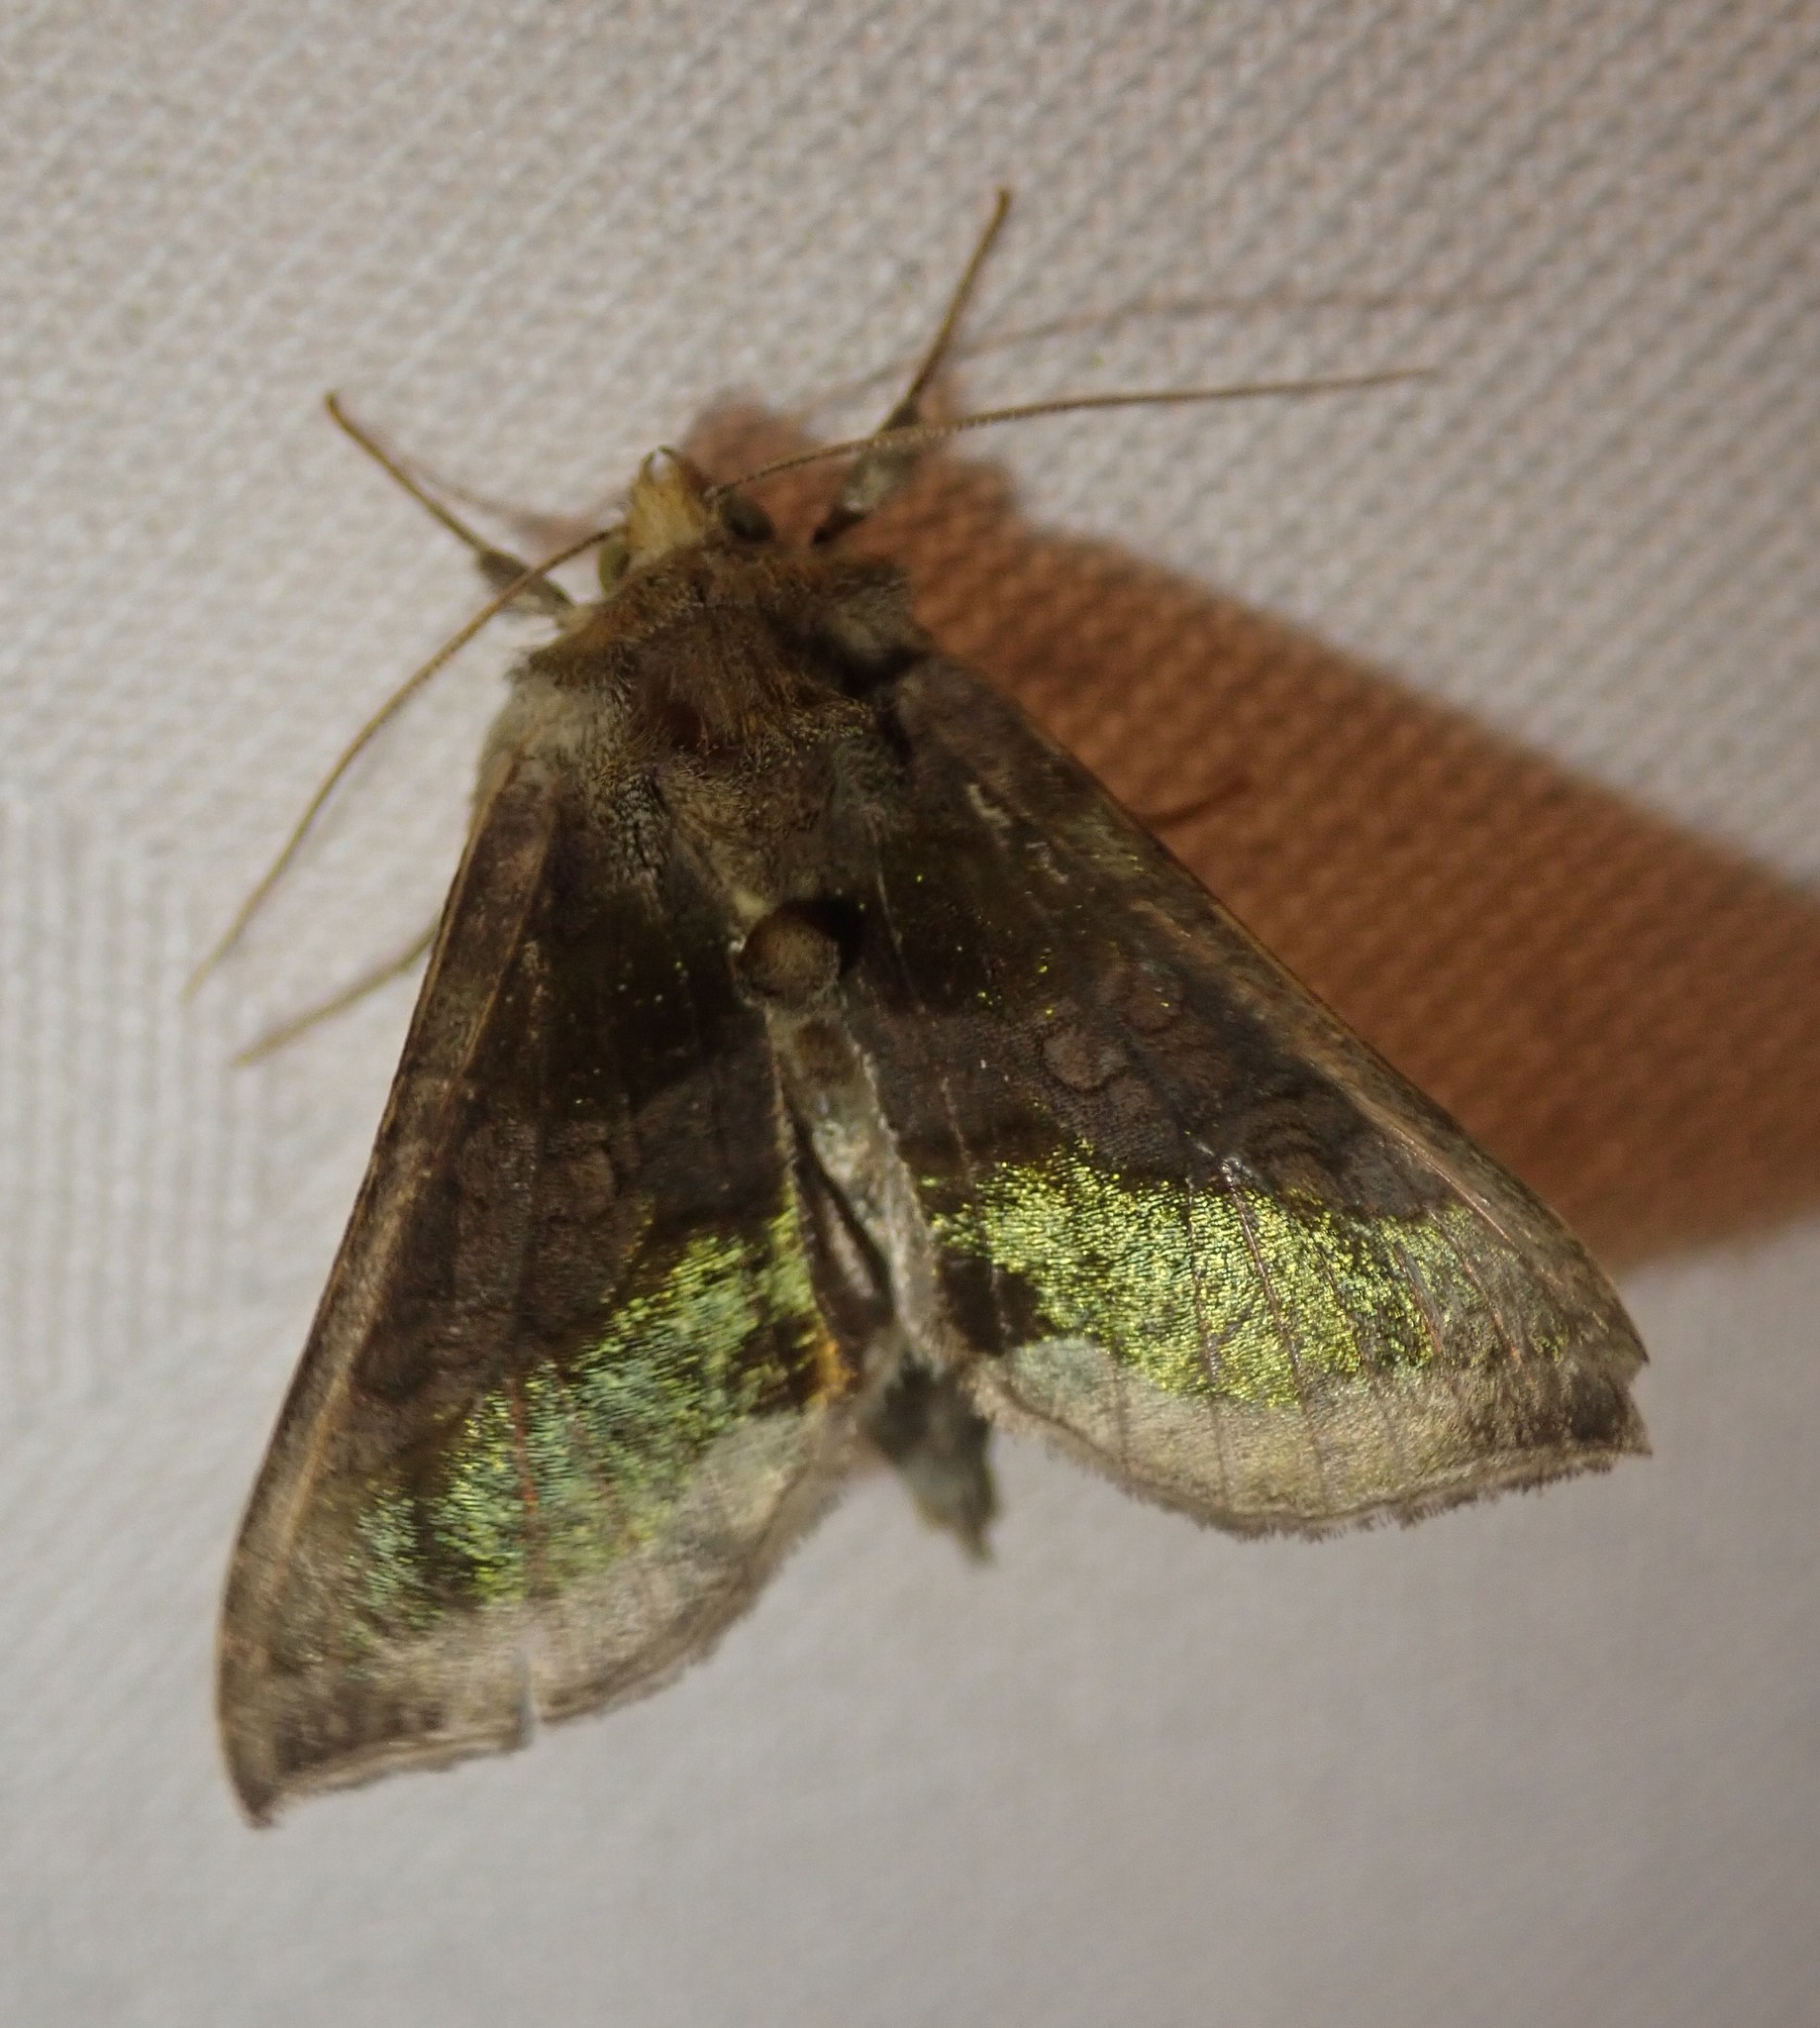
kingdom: Animalia
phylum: Arthropoda
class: Insecta
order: Lepidoptera
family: Noctuidae
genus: Diachrysia
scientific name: Diachrysia chrysitis
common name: Burnished brass
